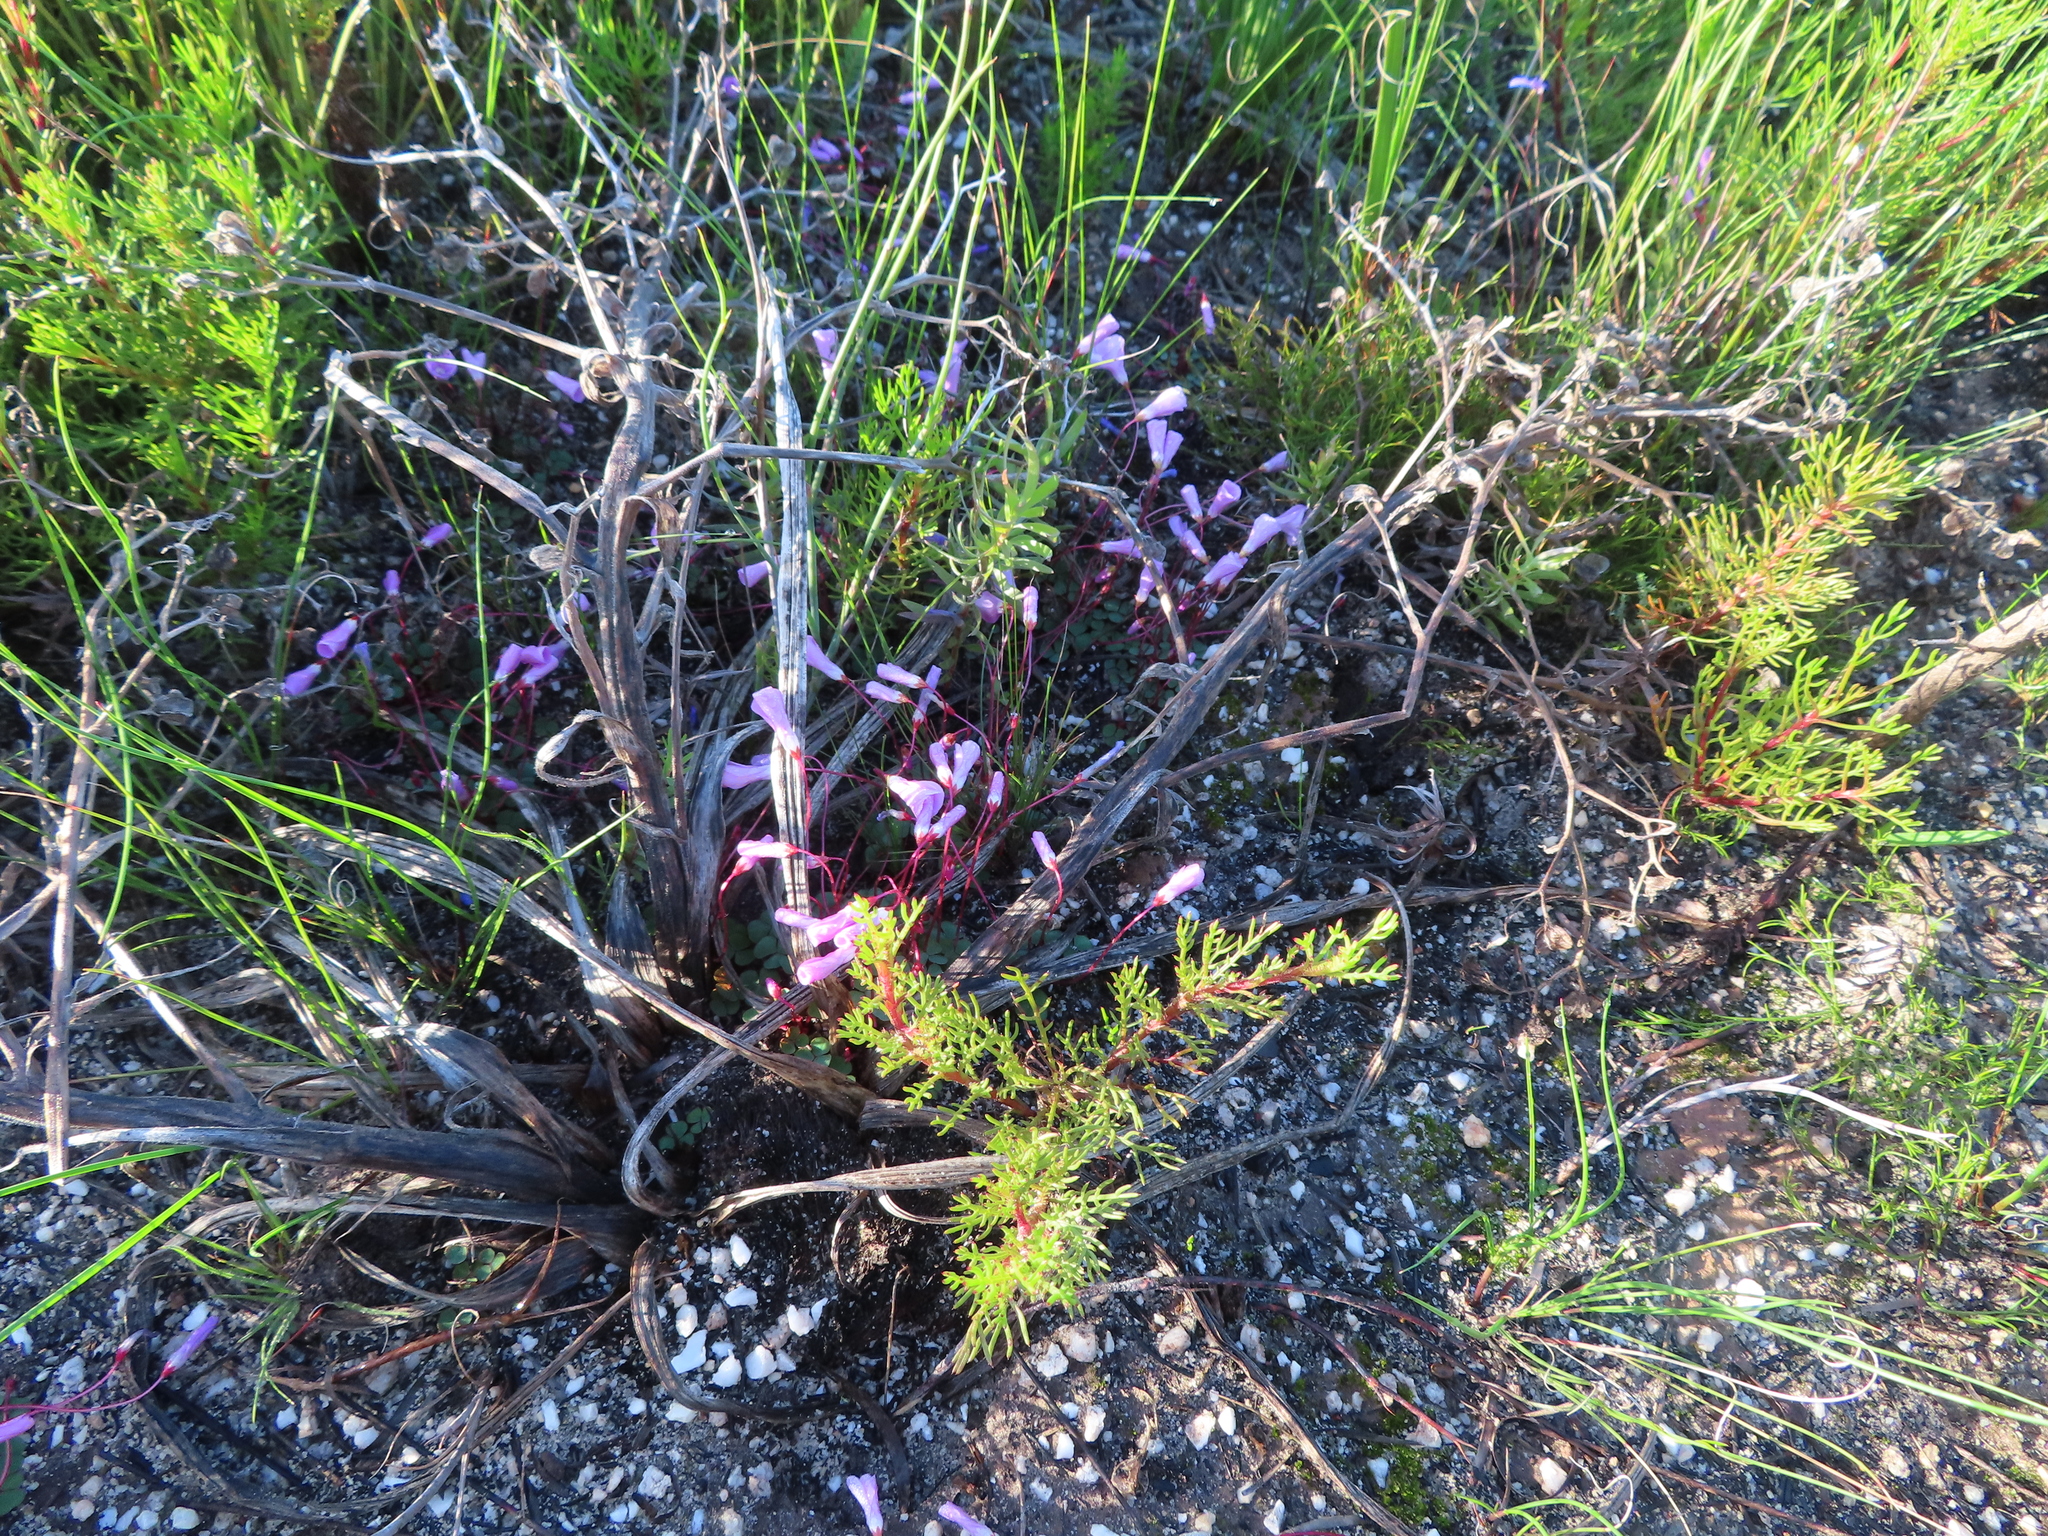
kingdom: Plantae
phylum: Tracheophyta
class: Magnoliopsida
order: Oxalidales
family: Oxalidaceae
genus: Oxalis
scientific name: Oxalis commutata
